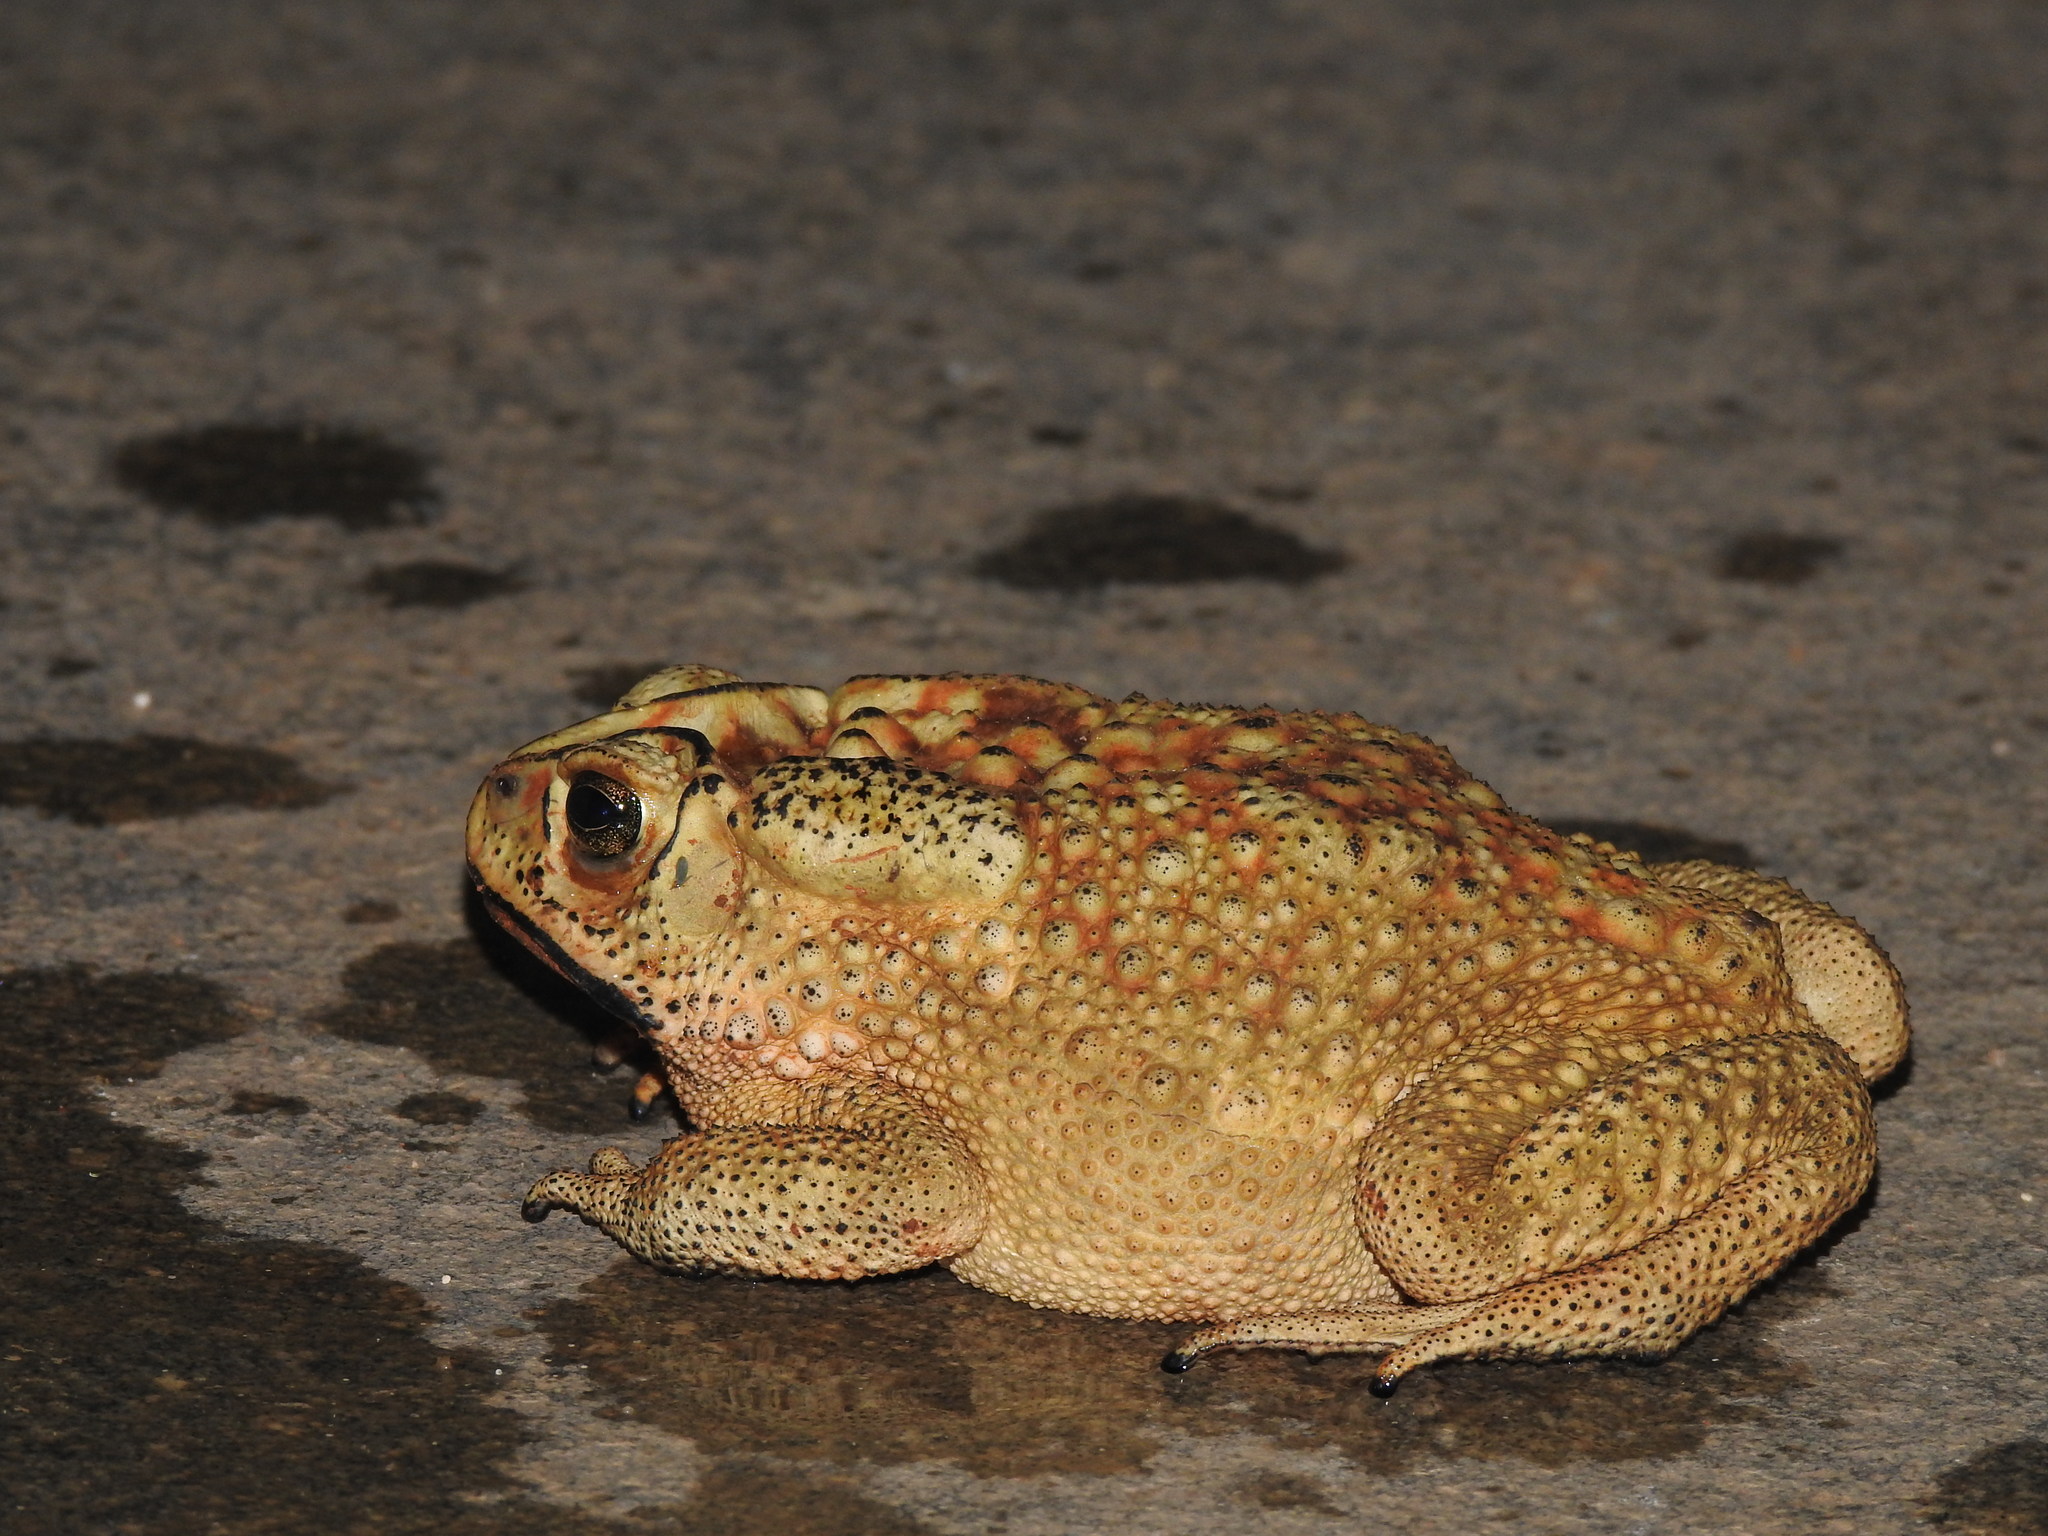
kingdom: Animalia
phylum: Chordata
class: Amphibia
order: Anura
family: Bufonidae
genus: Duttaphrynus
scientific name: Duttaphrynus melanostictus
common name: Common sunda toad
